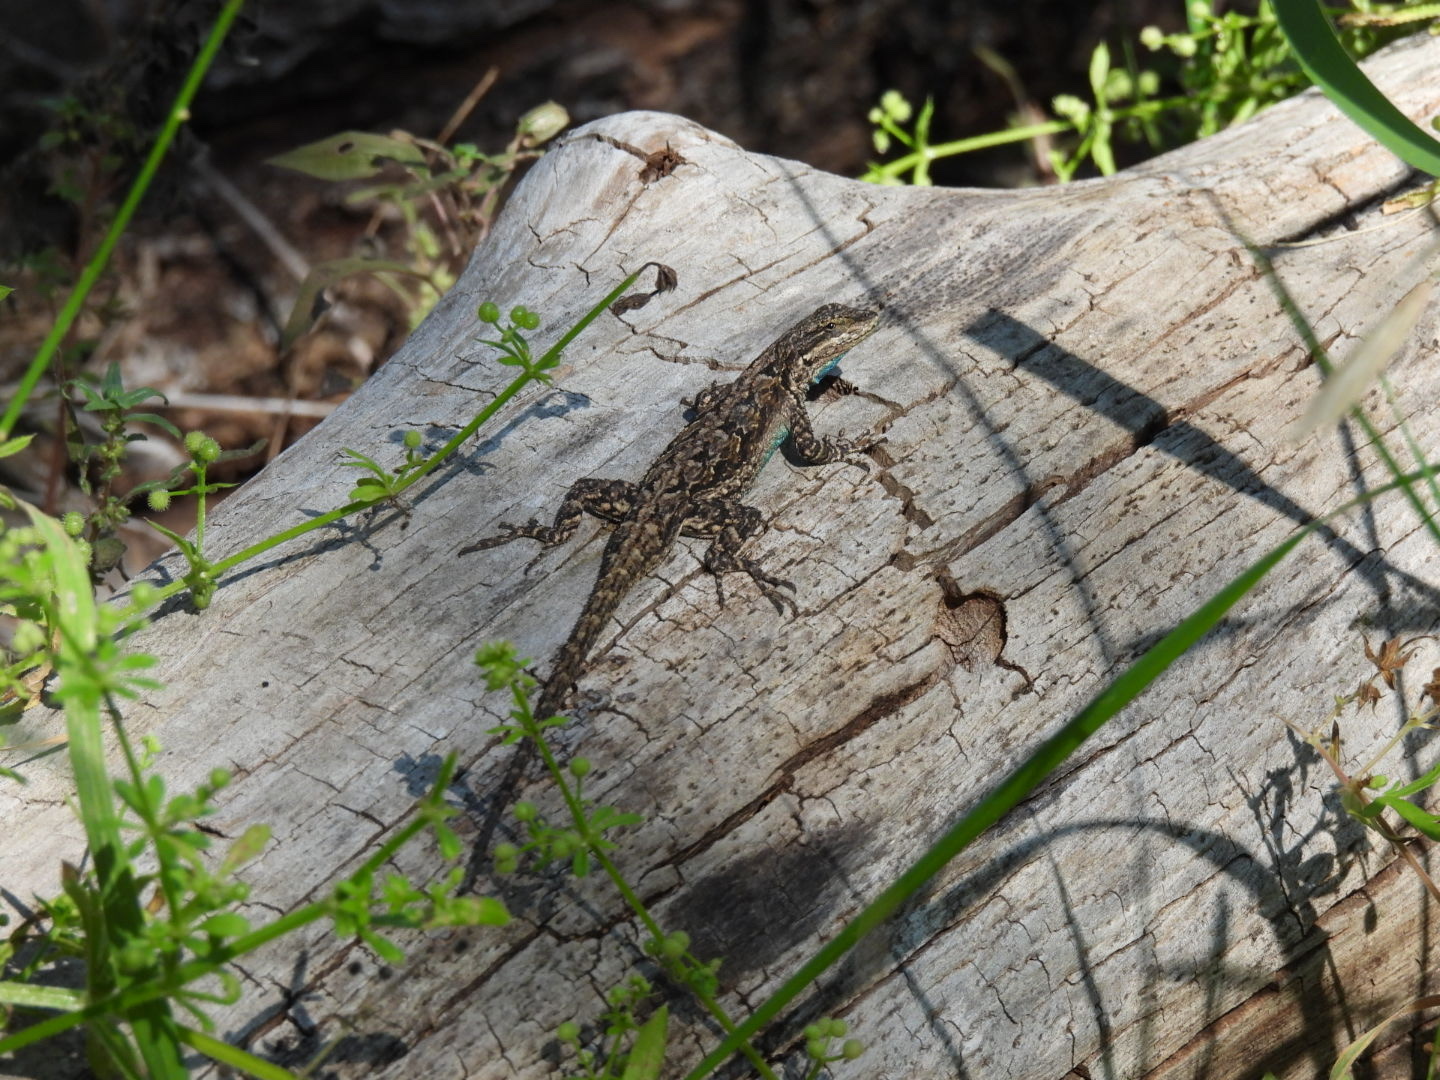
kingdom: Animalia
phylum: Chordata
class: Squamata
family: Phrynosomatidae
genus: Urosaurus
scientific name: Urosaurus ornatus
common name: Ornate tree lizard
